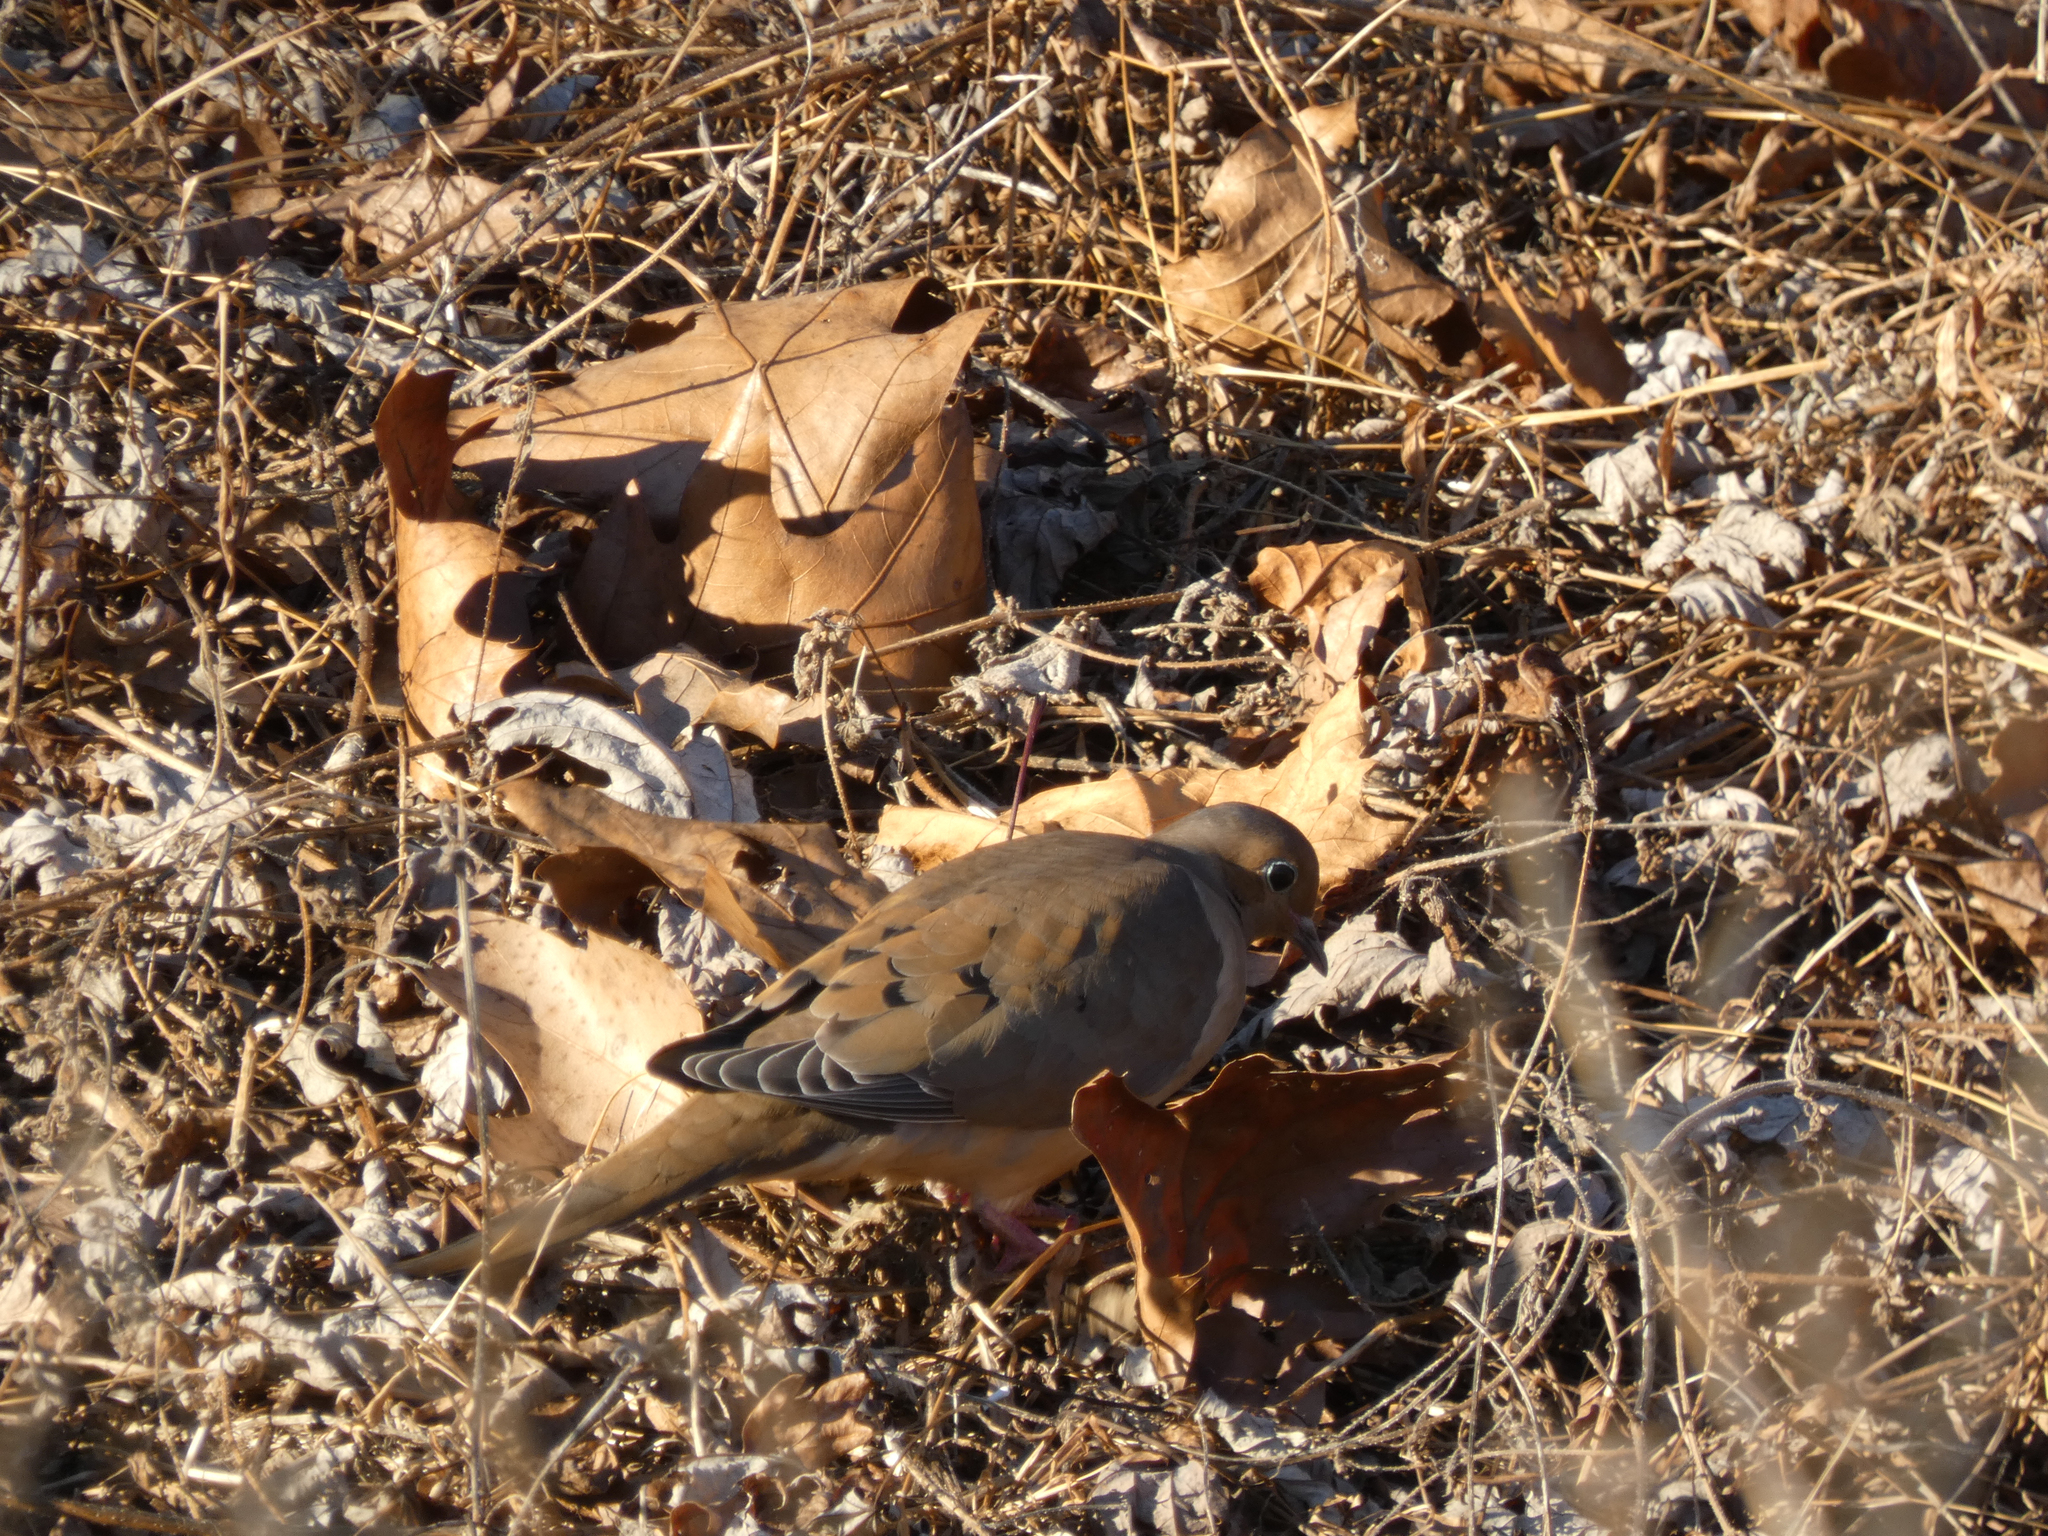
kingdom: Animalia
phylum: Chordata
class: Aves
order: Columbiformes
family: Columbidae
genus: Zenaida
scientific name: Zenaida macroura
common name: Mourning dove
